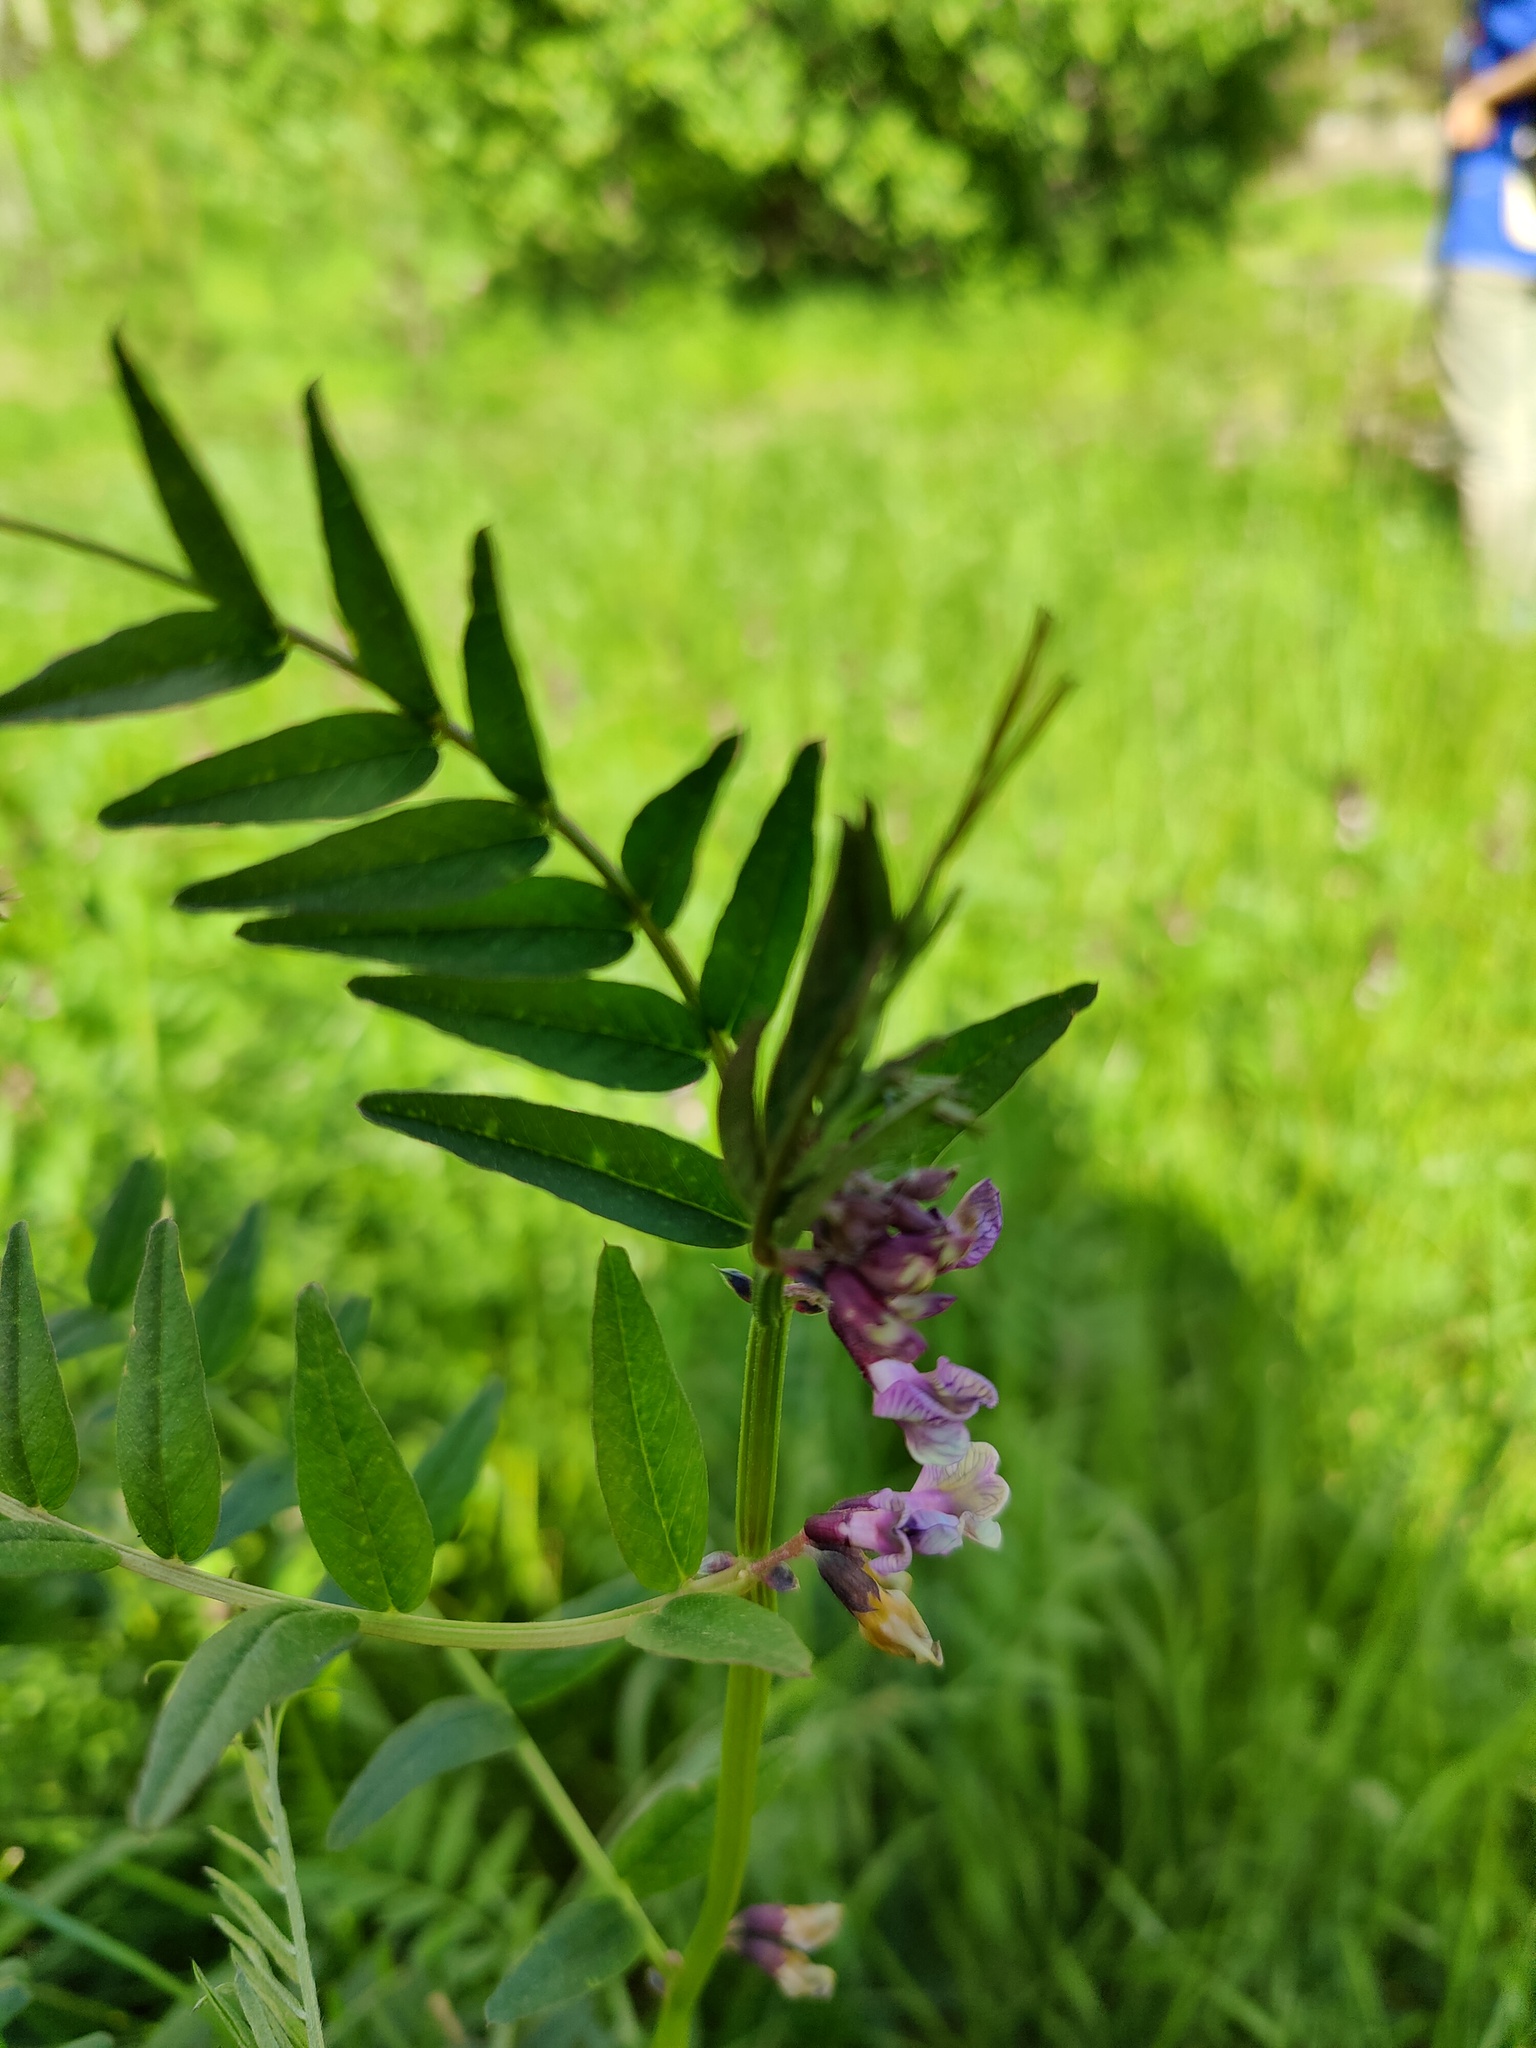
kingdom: Plantae
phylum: Tracheophyta
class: Magnoliopsida
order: Fabales
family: Fabaceae
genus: Vicia
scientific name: Vicia sepium
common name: Bush vetch
